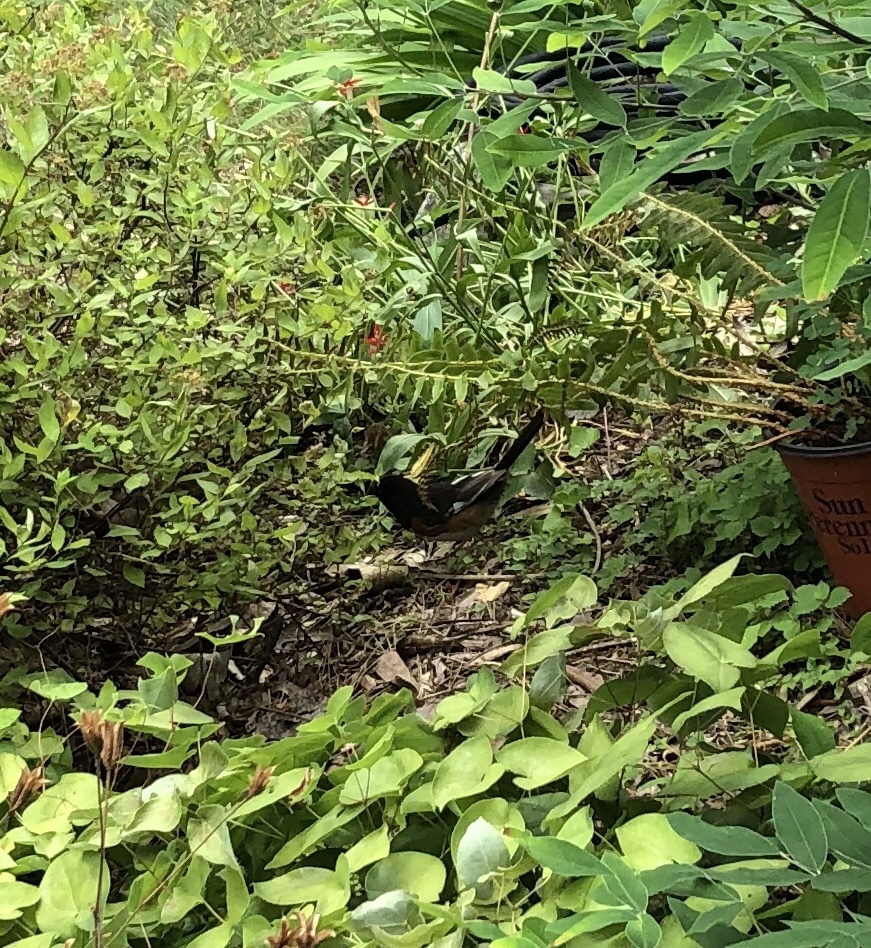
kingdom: Animalia
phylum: Chordata
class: Aves
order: Passeriformes
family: Passerellidae
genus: Pipilo
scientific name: Pipilo erythrophthalmus
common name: Eastern towhee
